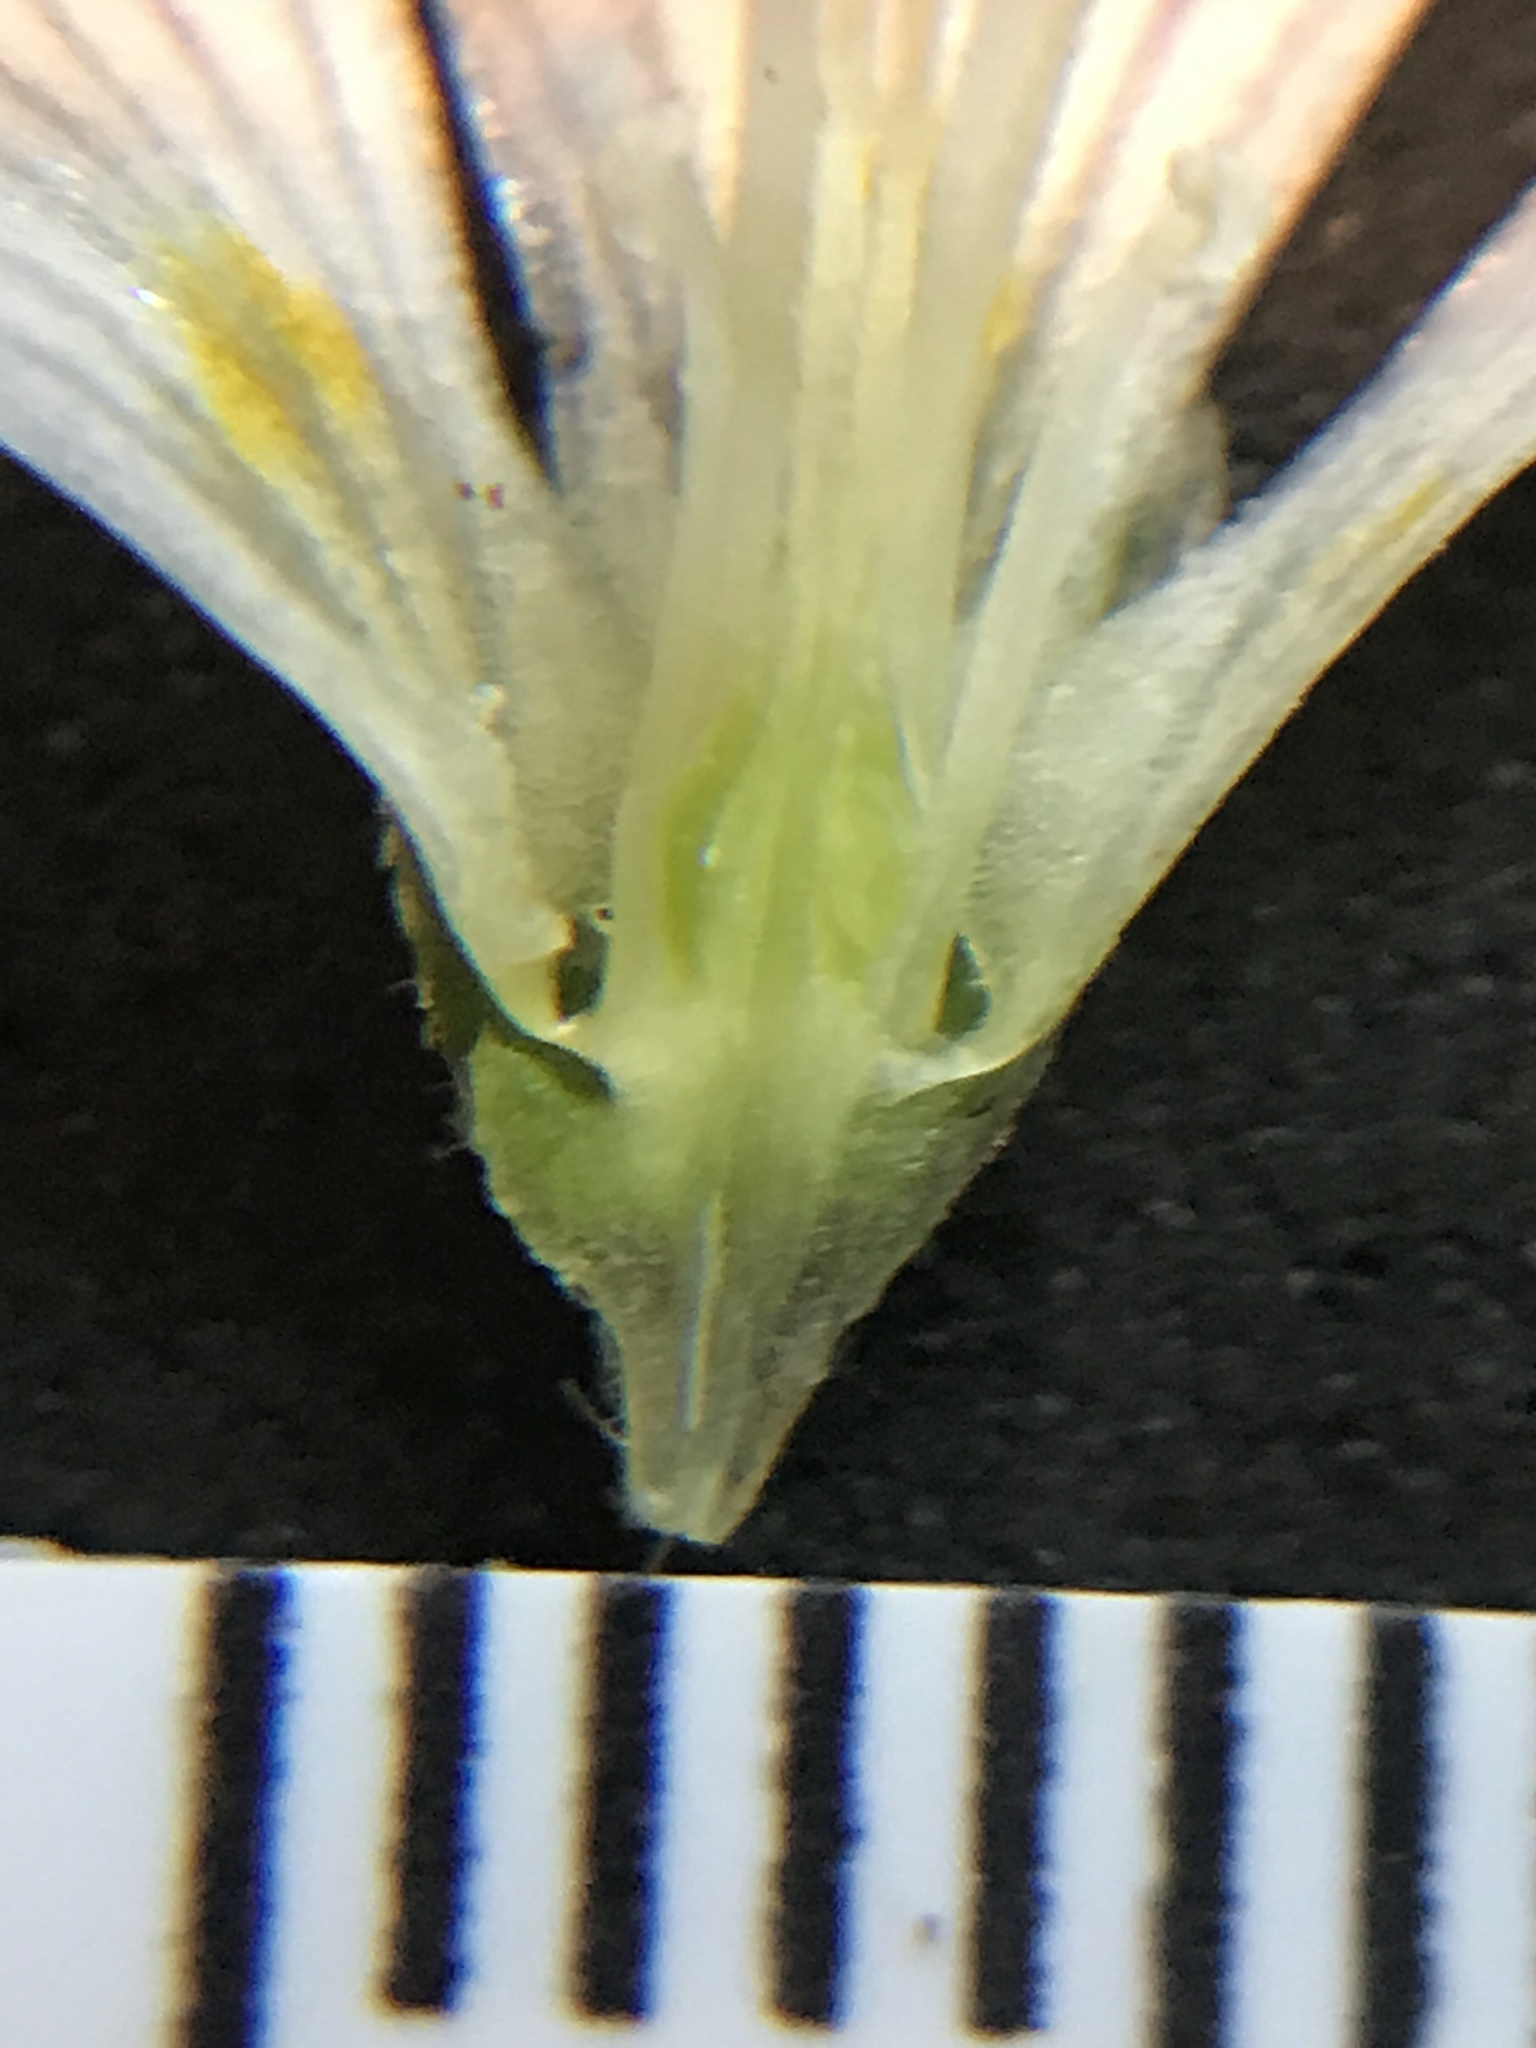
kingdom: Plantae
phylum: Tracheophyta
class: Magnoliopsida
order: Oxalidales
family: Oxalidaceae
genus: Oxalis
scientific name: Oxalis oregana
